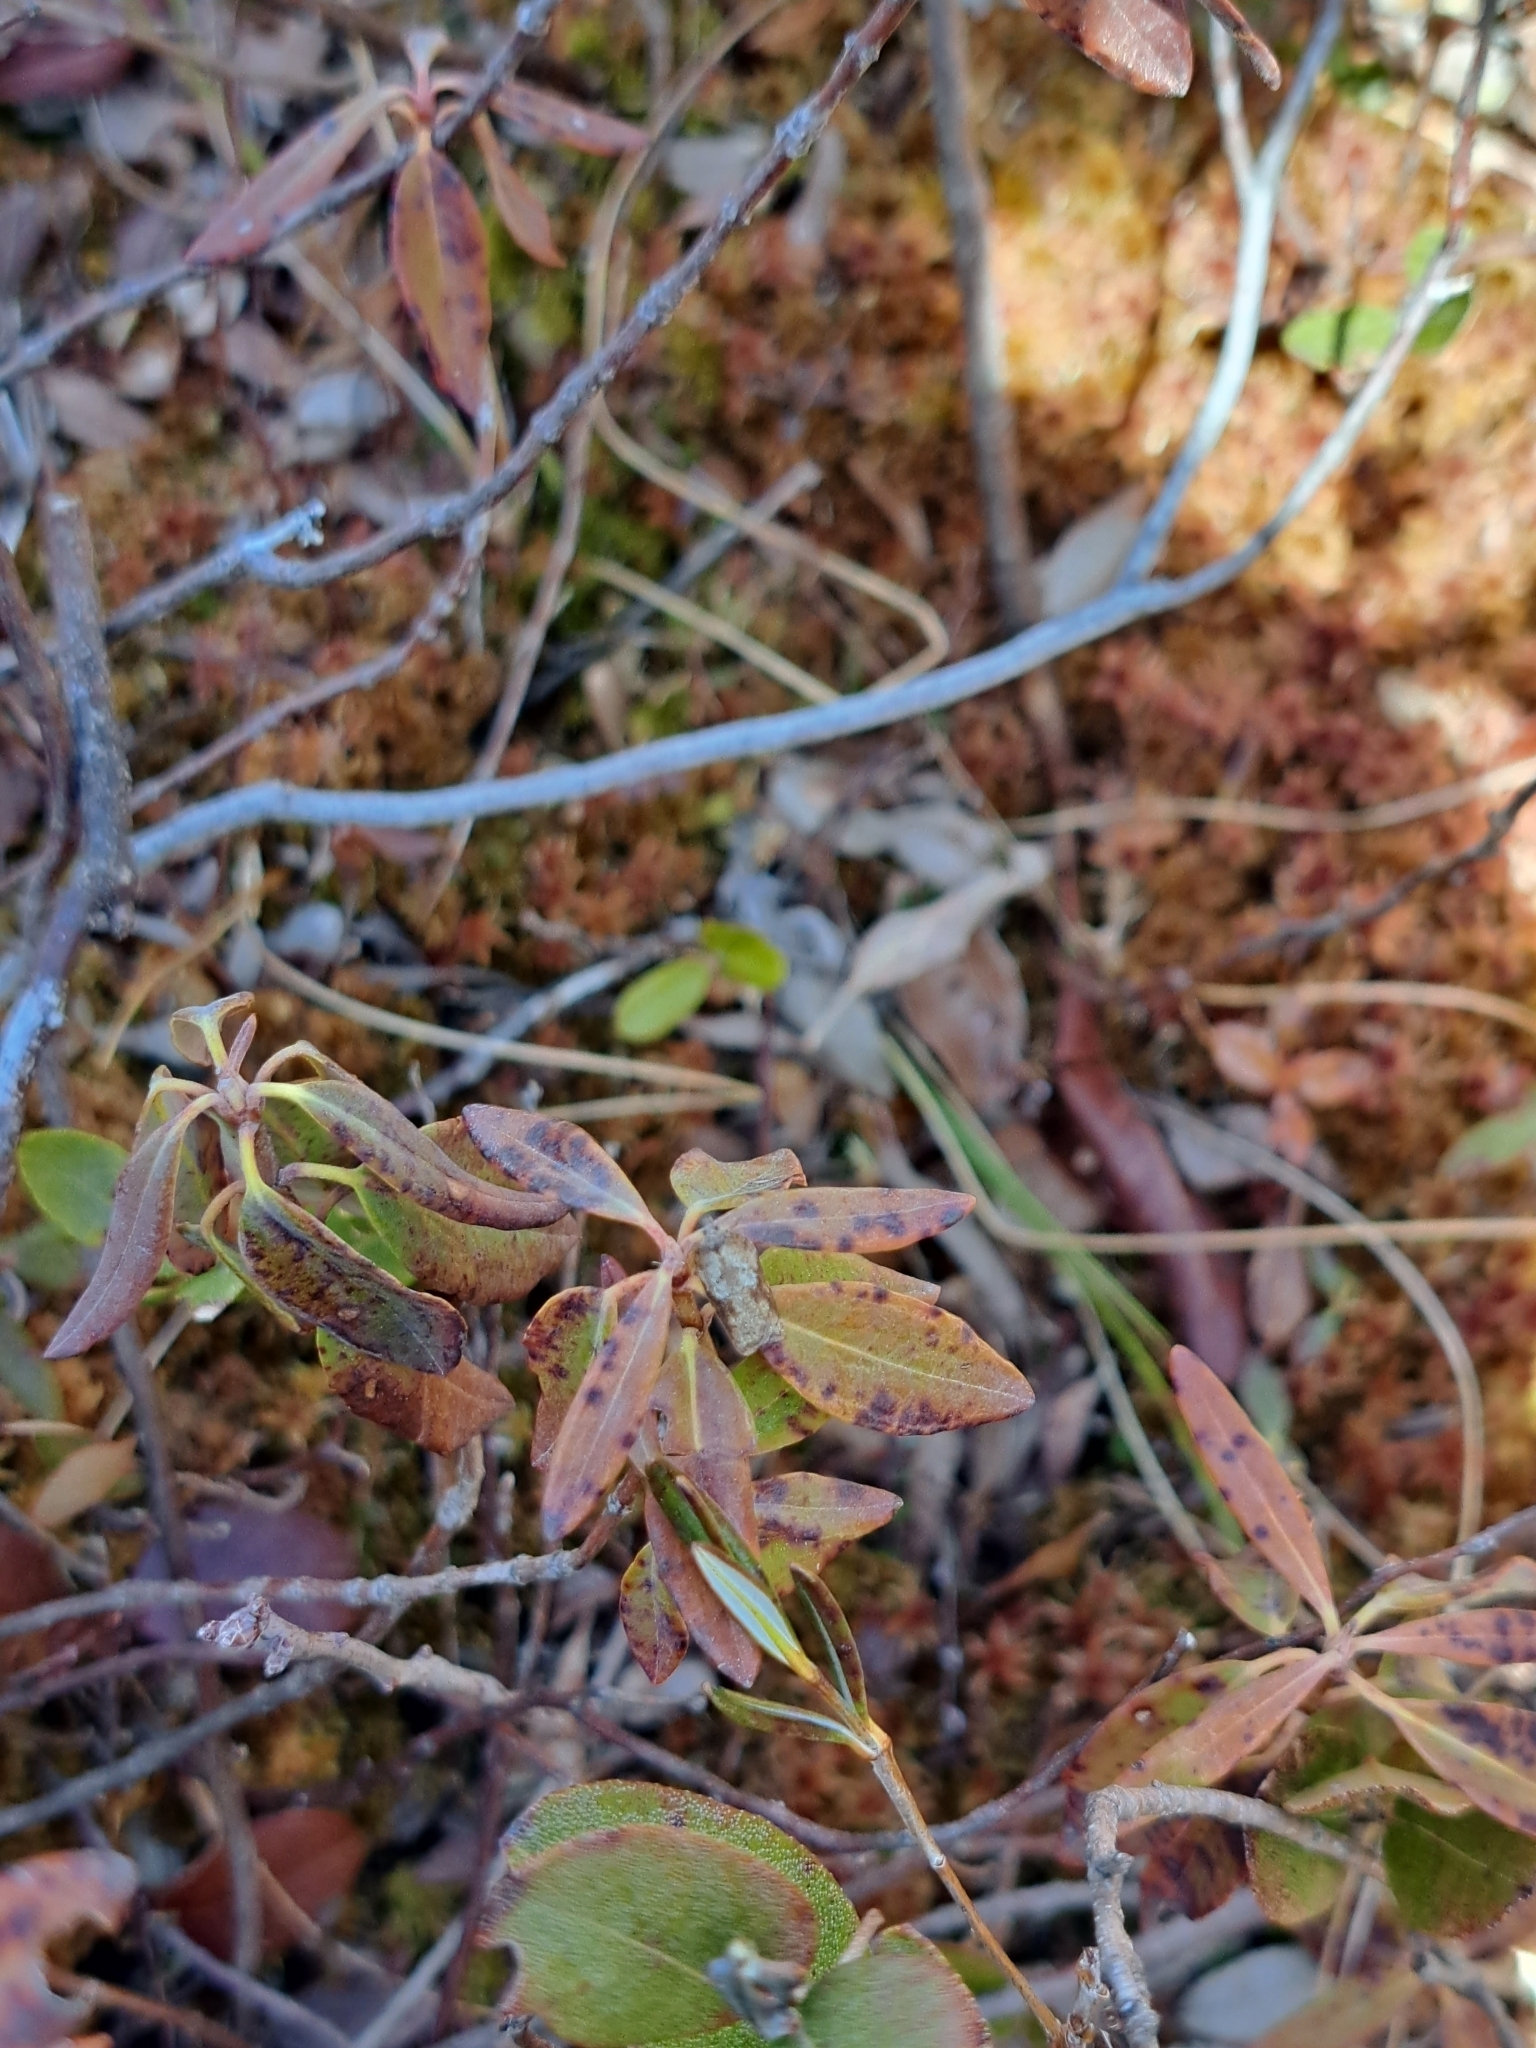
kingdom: Plantae
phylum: Tracheophyta
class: Magnoliopsida
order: Ericales
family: Ericaceae
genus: Kalmia
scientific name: Kalmia angustifolia
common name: Sheep-laurel
